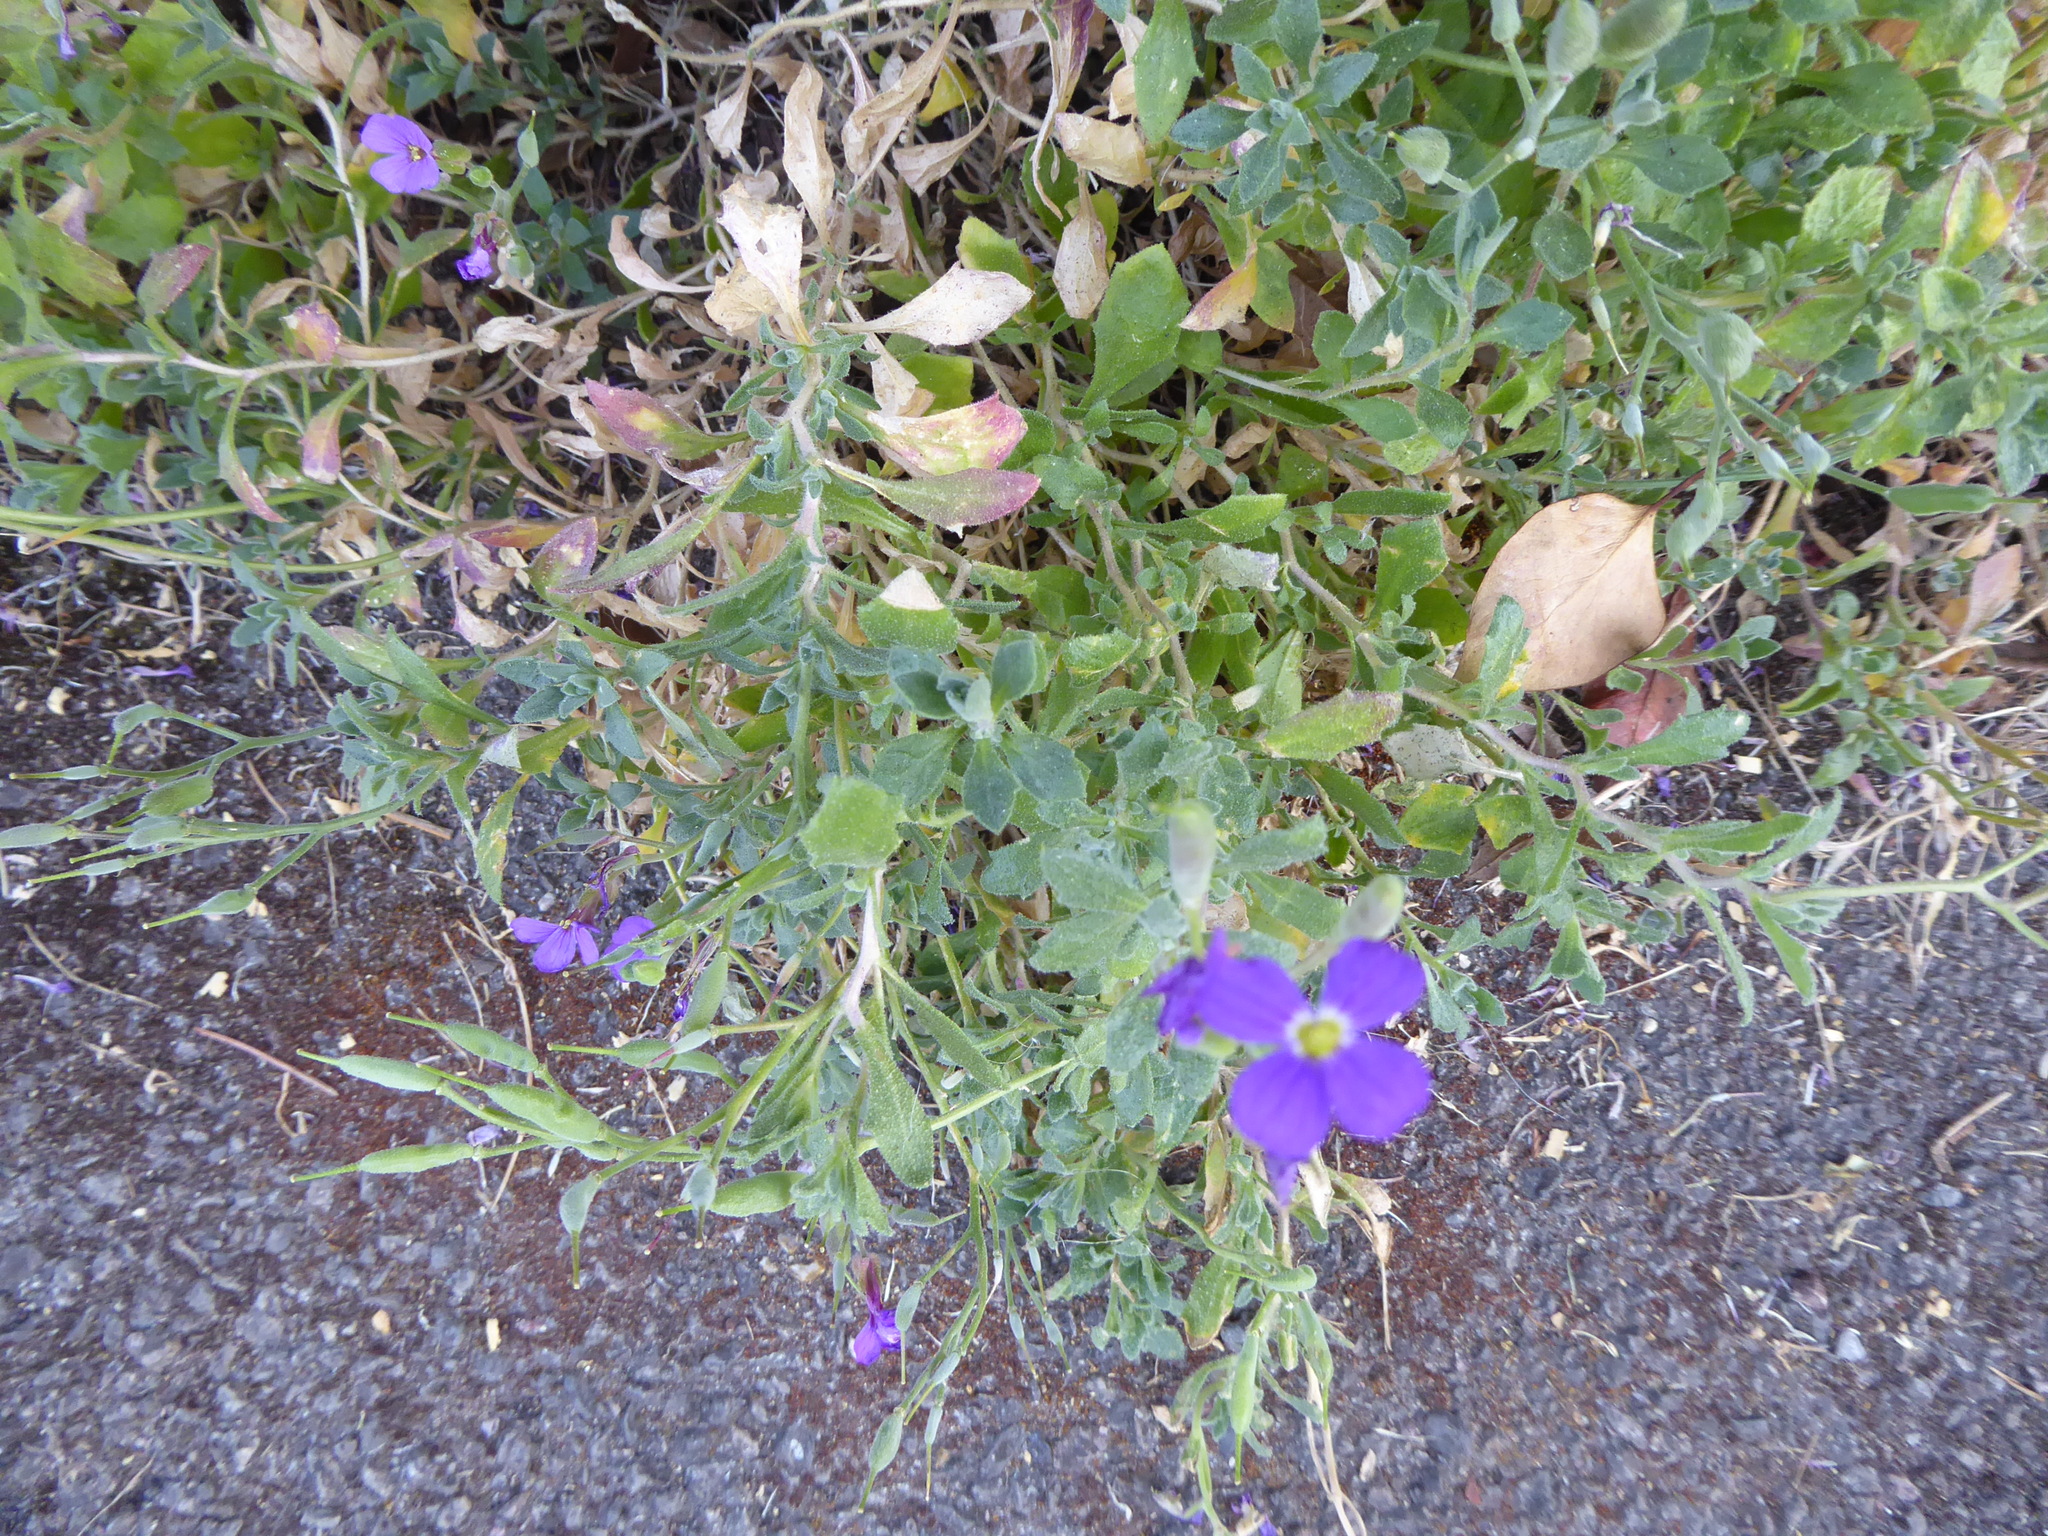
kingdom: Plantae
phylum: Tracheophyta
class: Magnoliopsida
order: Brassicales
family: Brassicaceae
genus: Aubrieta
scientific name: Aubrieta deltoidea
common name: Aubretia
